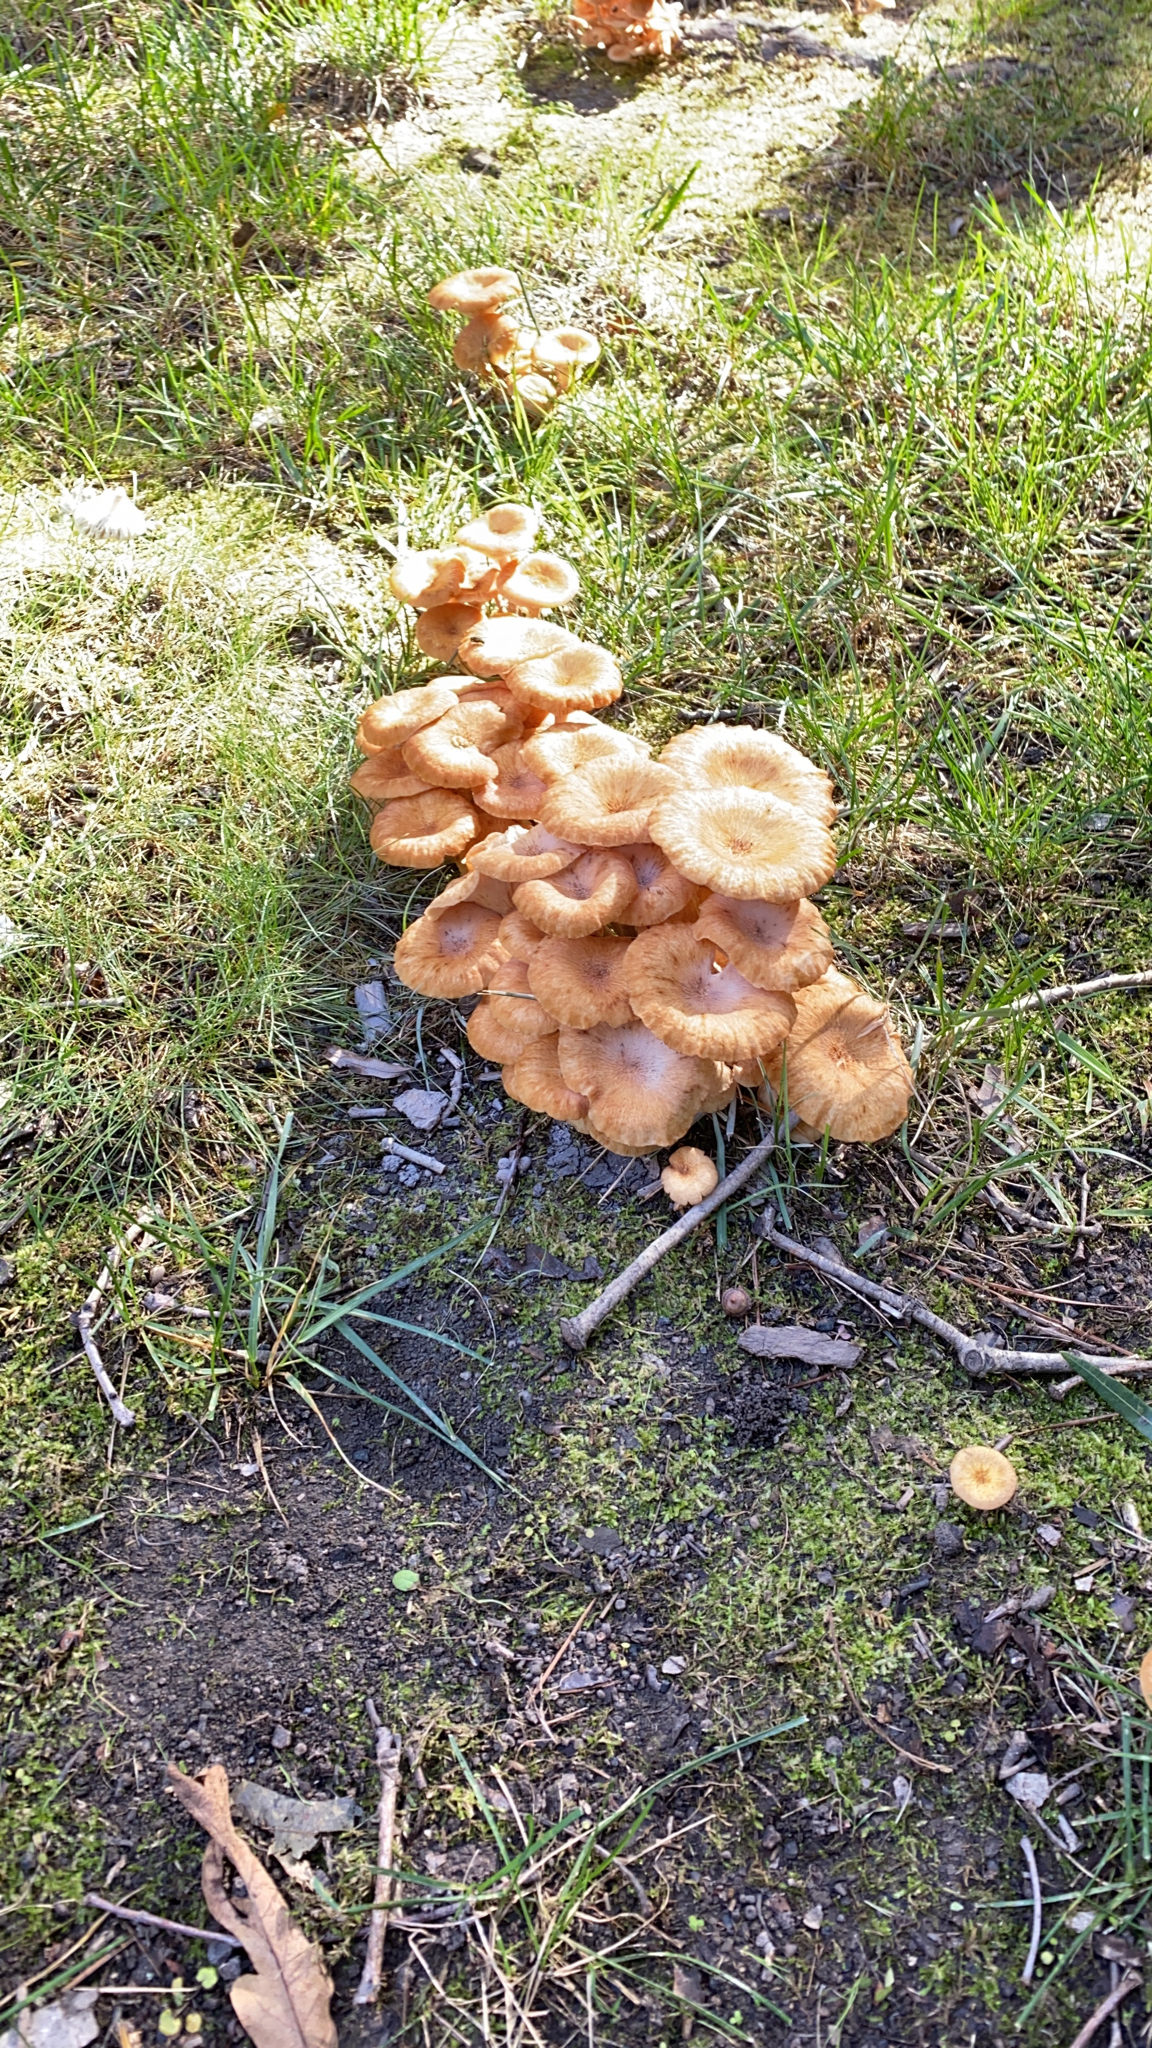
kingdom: Fungi
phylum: Basidiomycota
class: Agaricomycetes
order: Agaricales
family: Physalacriaceae
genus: Desarmillaria
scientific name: Desarmillaria caespitosa
